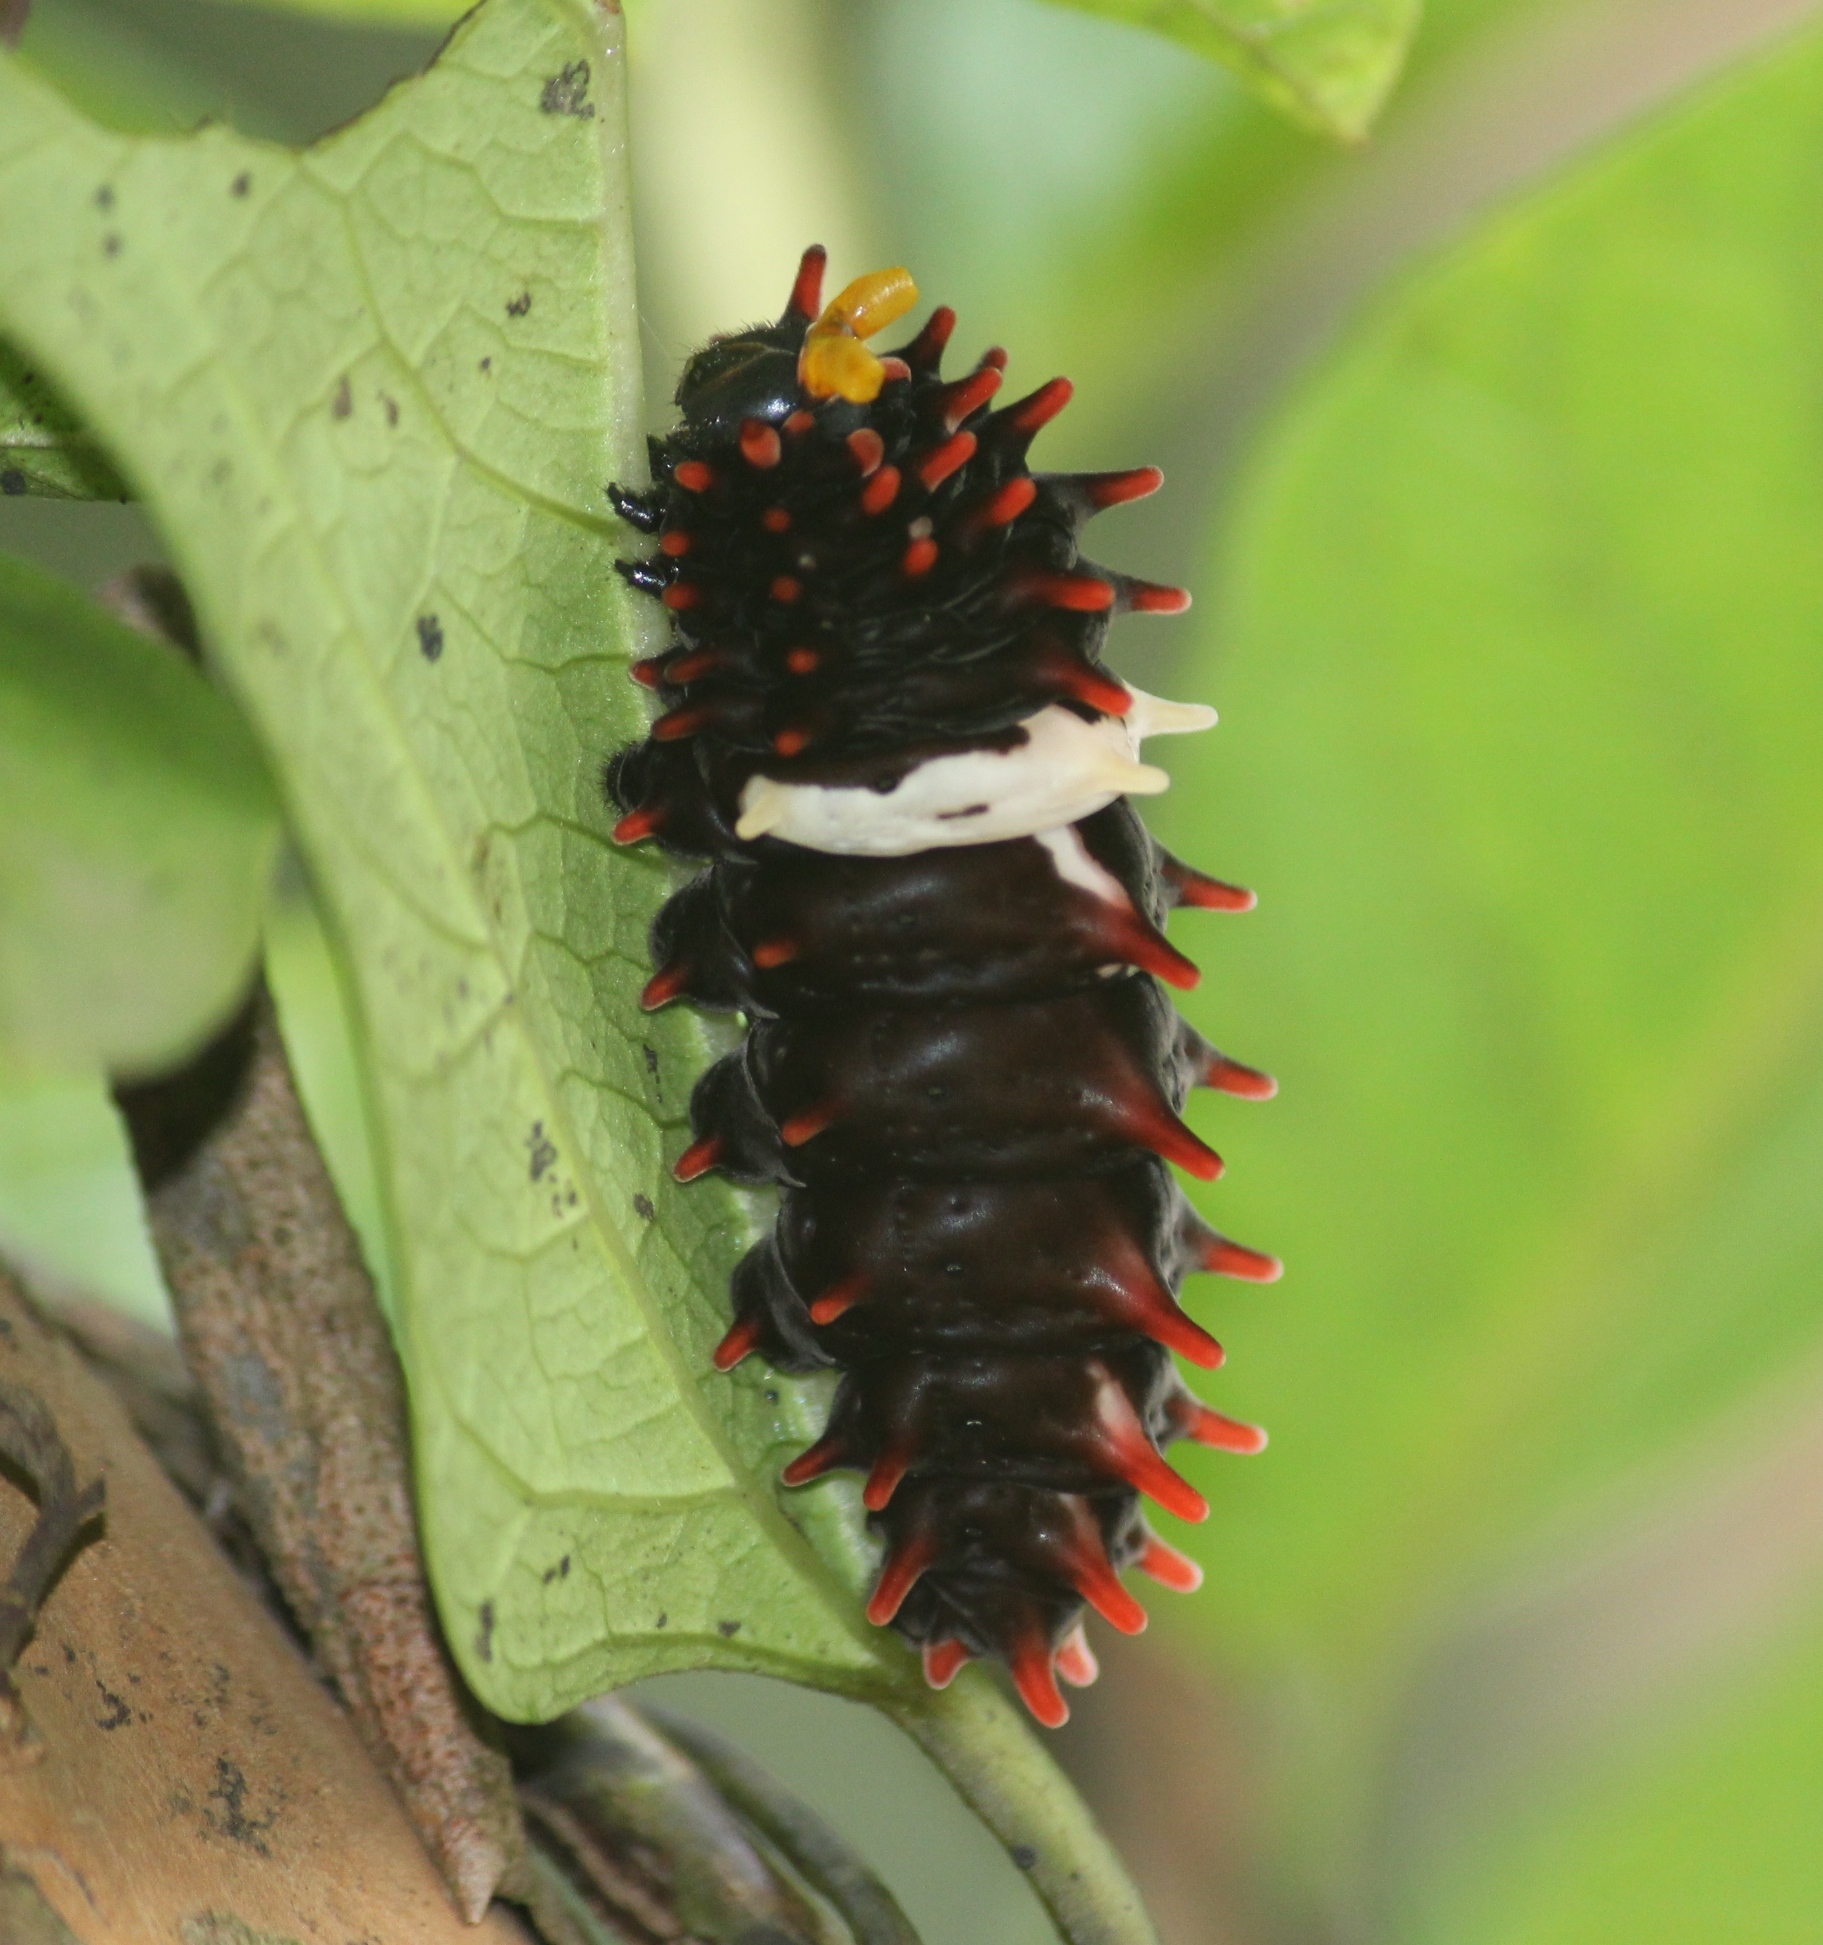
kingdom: Animalia
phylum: Arthropoda
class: Insecta
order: Lepidoptera
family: Papilionidae
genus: Pachliopta
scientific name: Pachliopta aristolochiae
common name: Common rose
